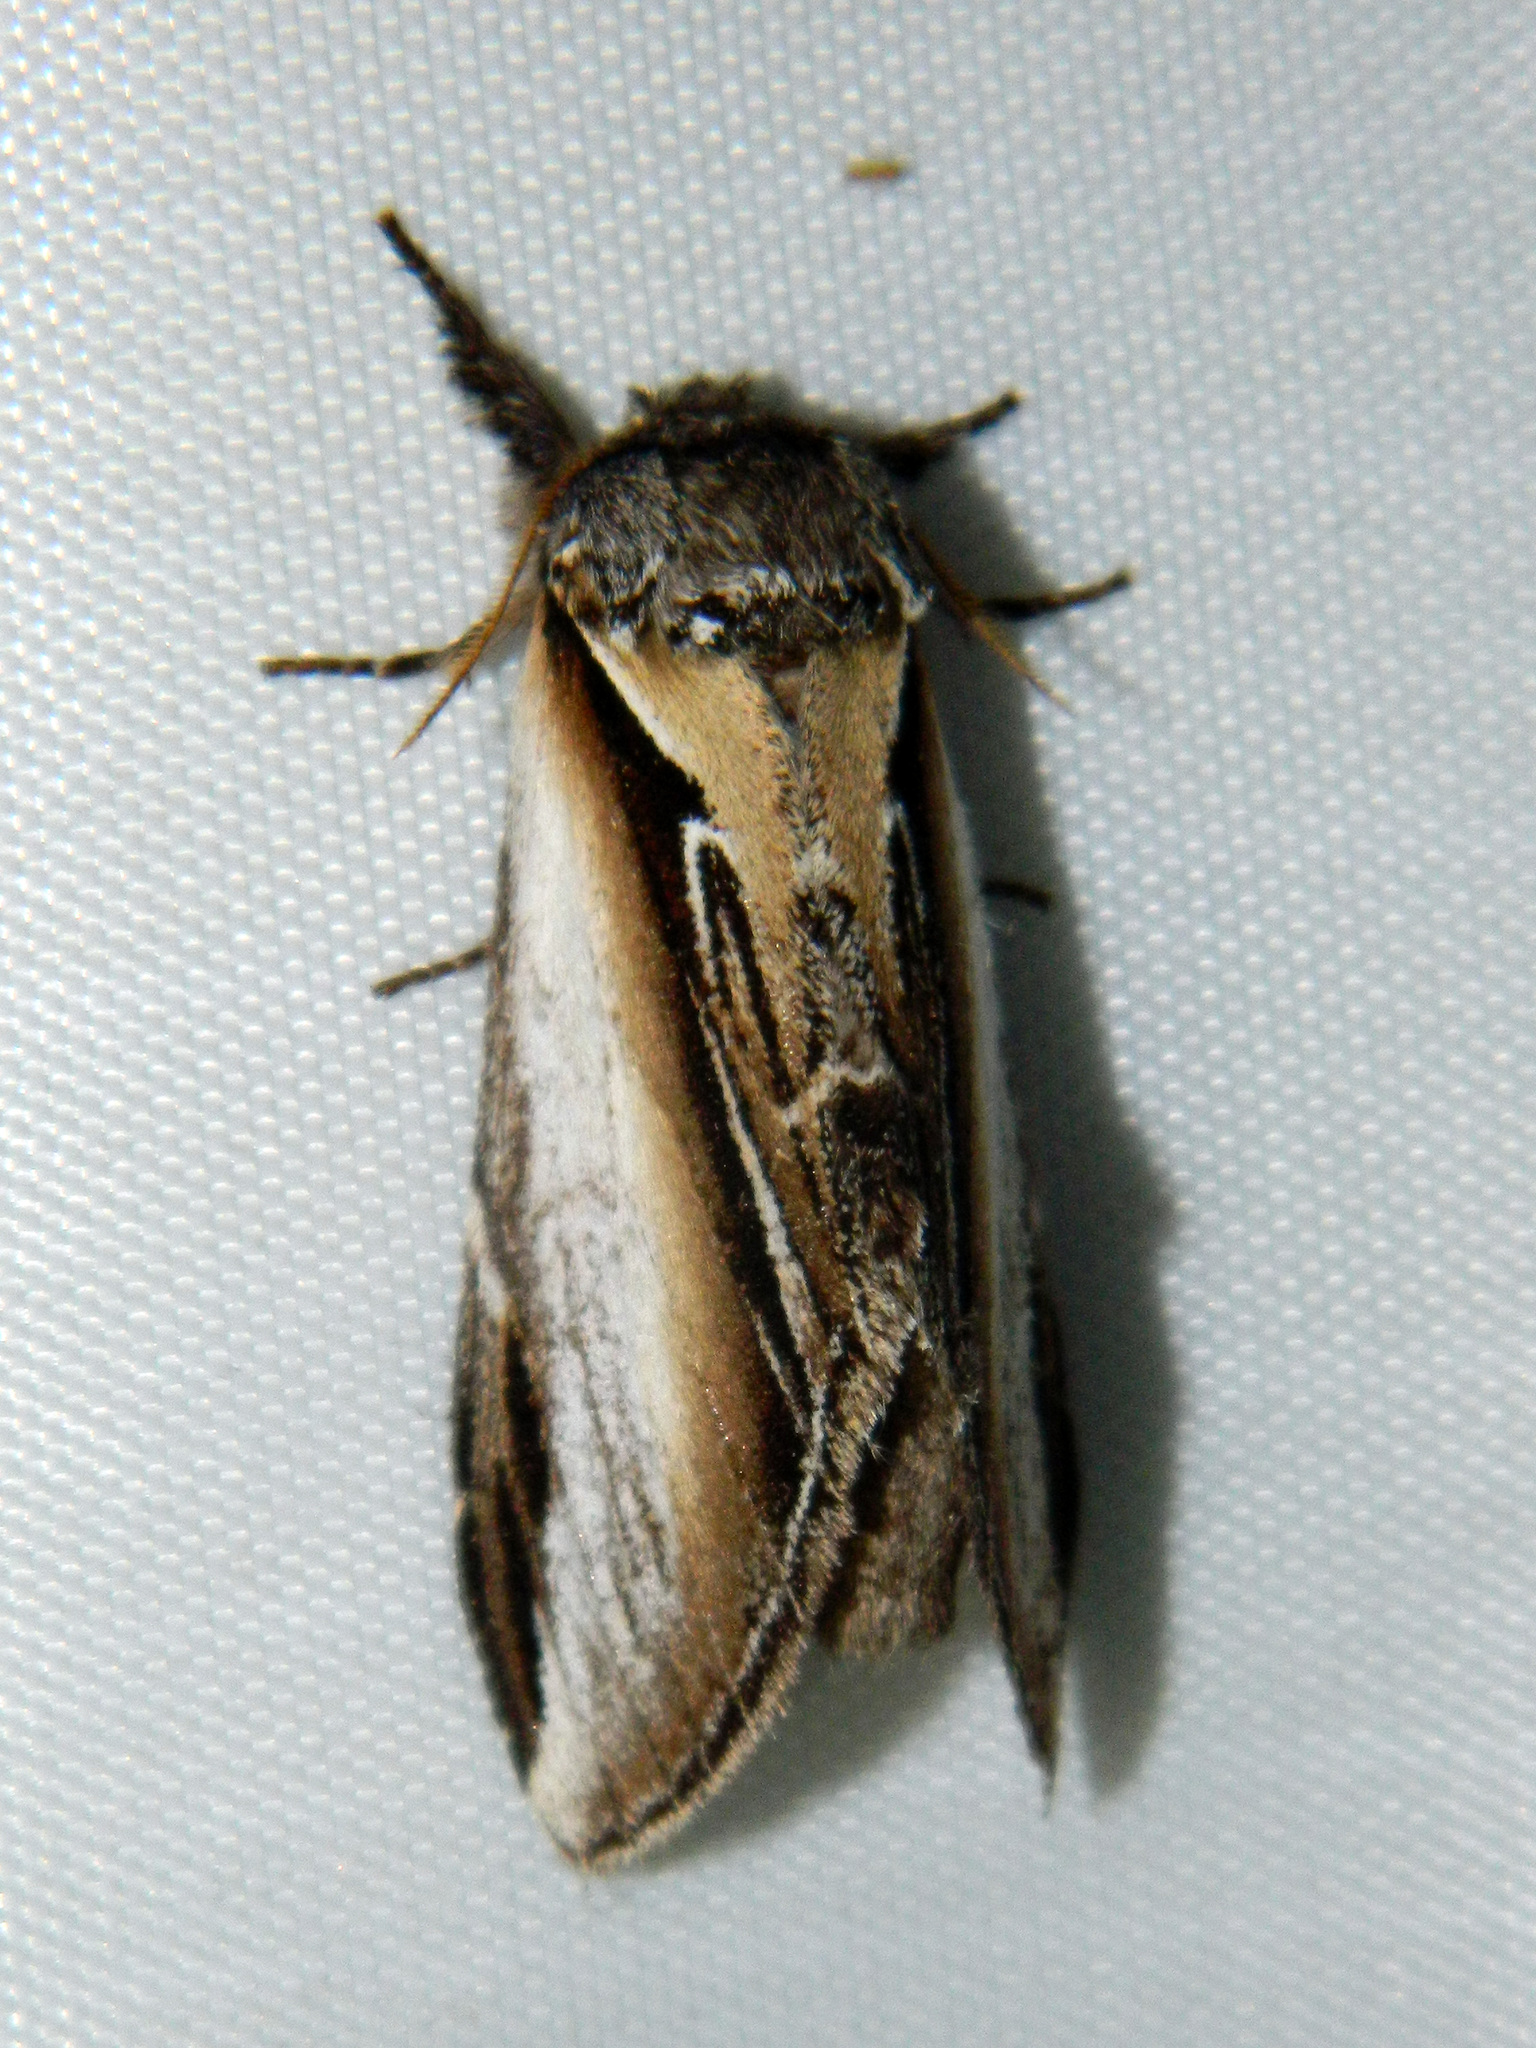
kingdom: Animalia
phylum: Arthropoda
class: Insecta
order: Lepidoptera
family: Notodontidae
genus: Pheosia
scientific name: Pheosia rimosa
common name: Black-rimmed prominent
